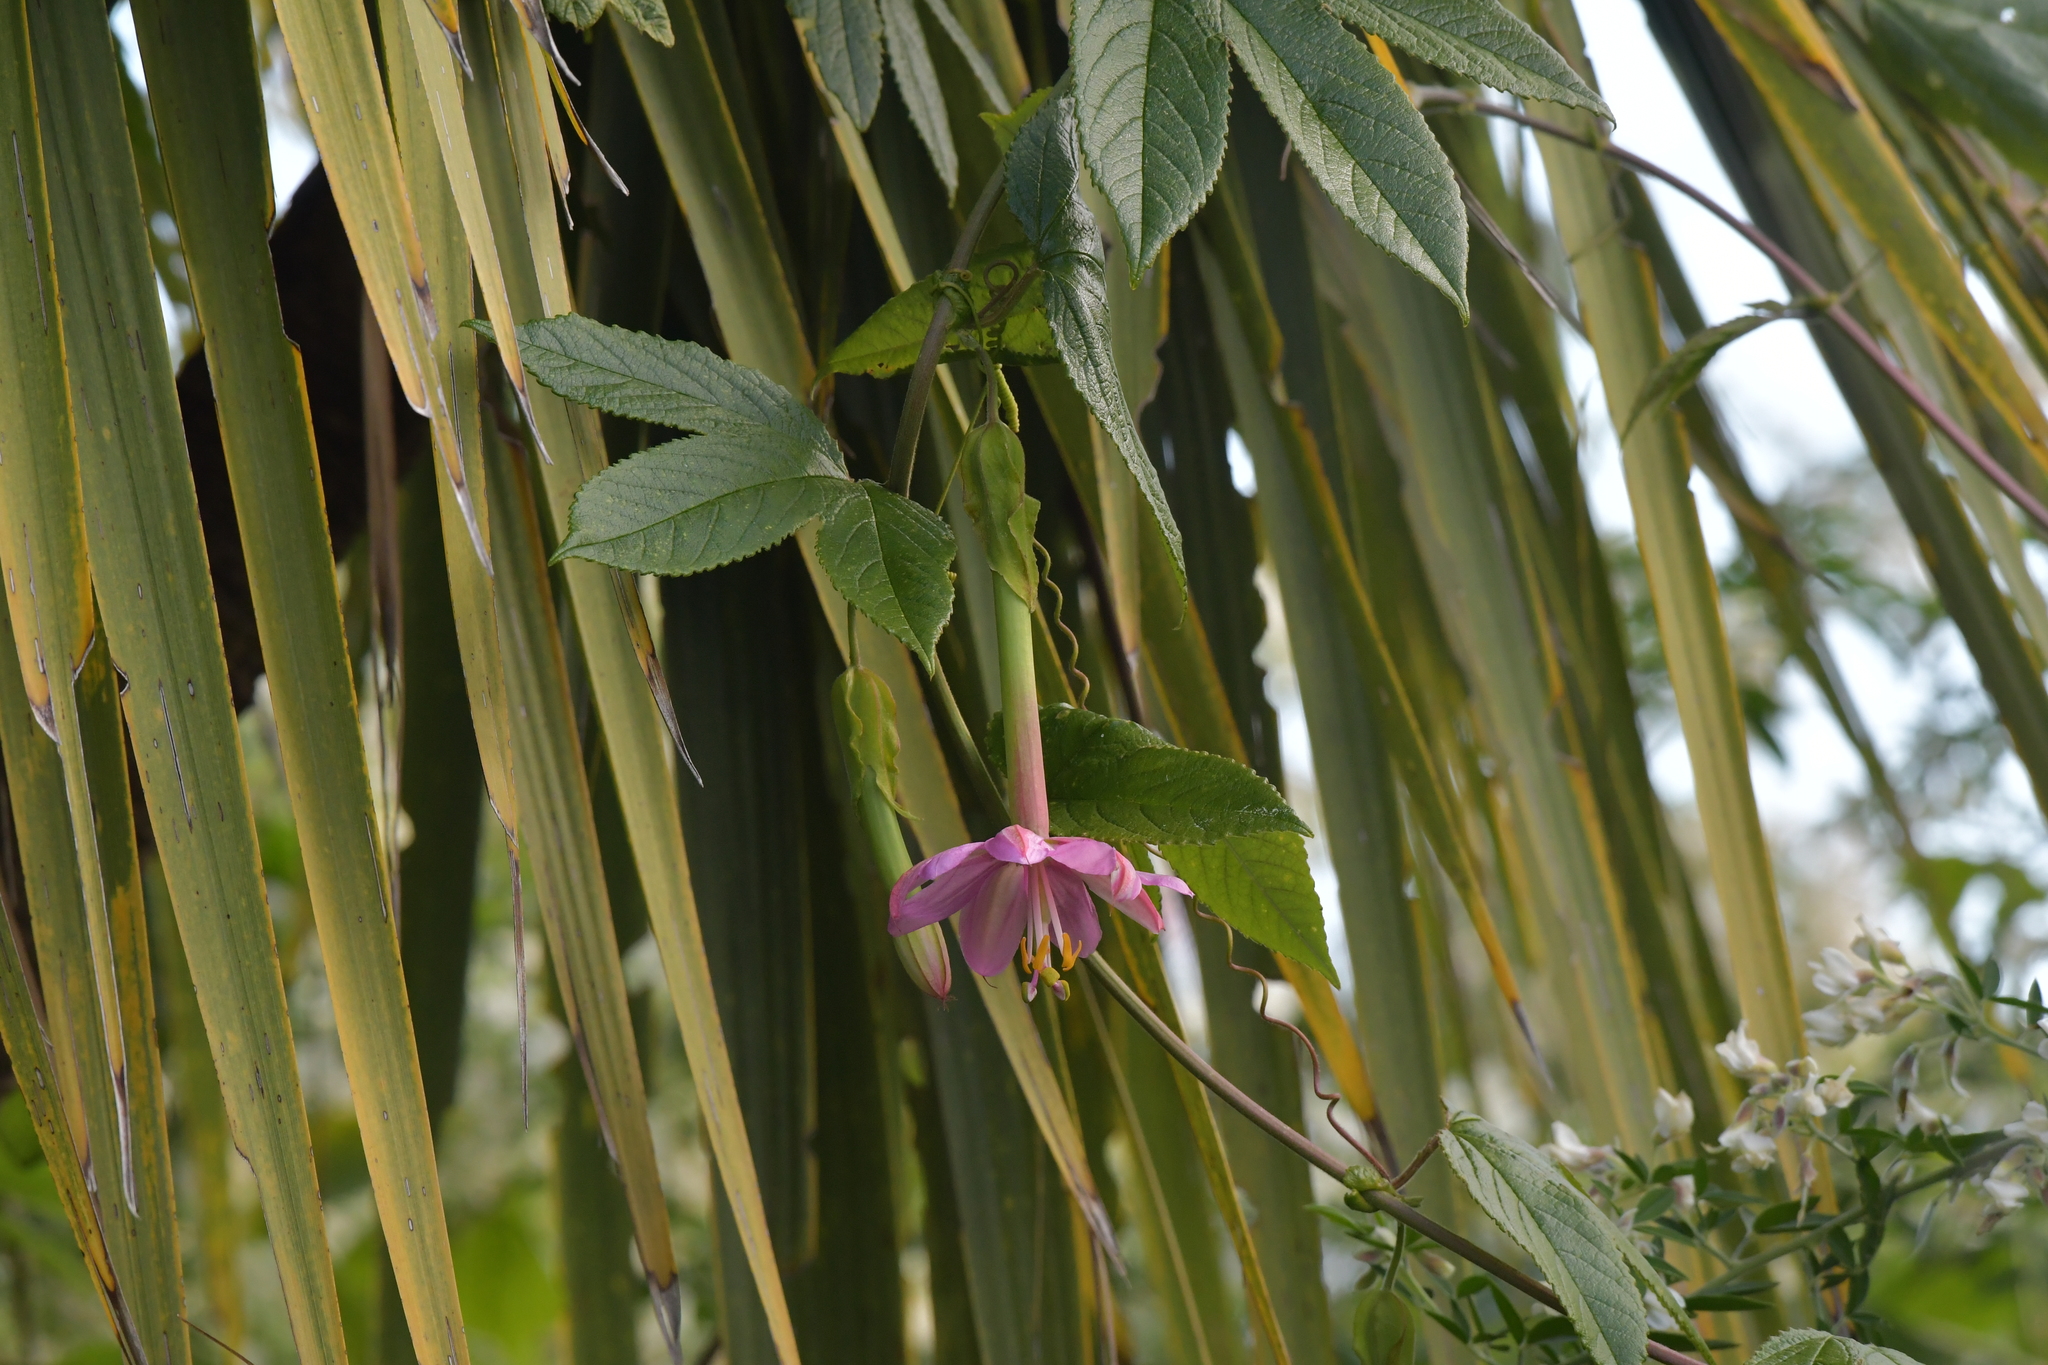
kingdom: Plantae
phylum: Tracheophyta
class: Magnoliopsida
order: Malpighiales
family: Passifloraceae
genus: Passiflora
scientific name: Passiflora tripartita
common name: Banana poka
